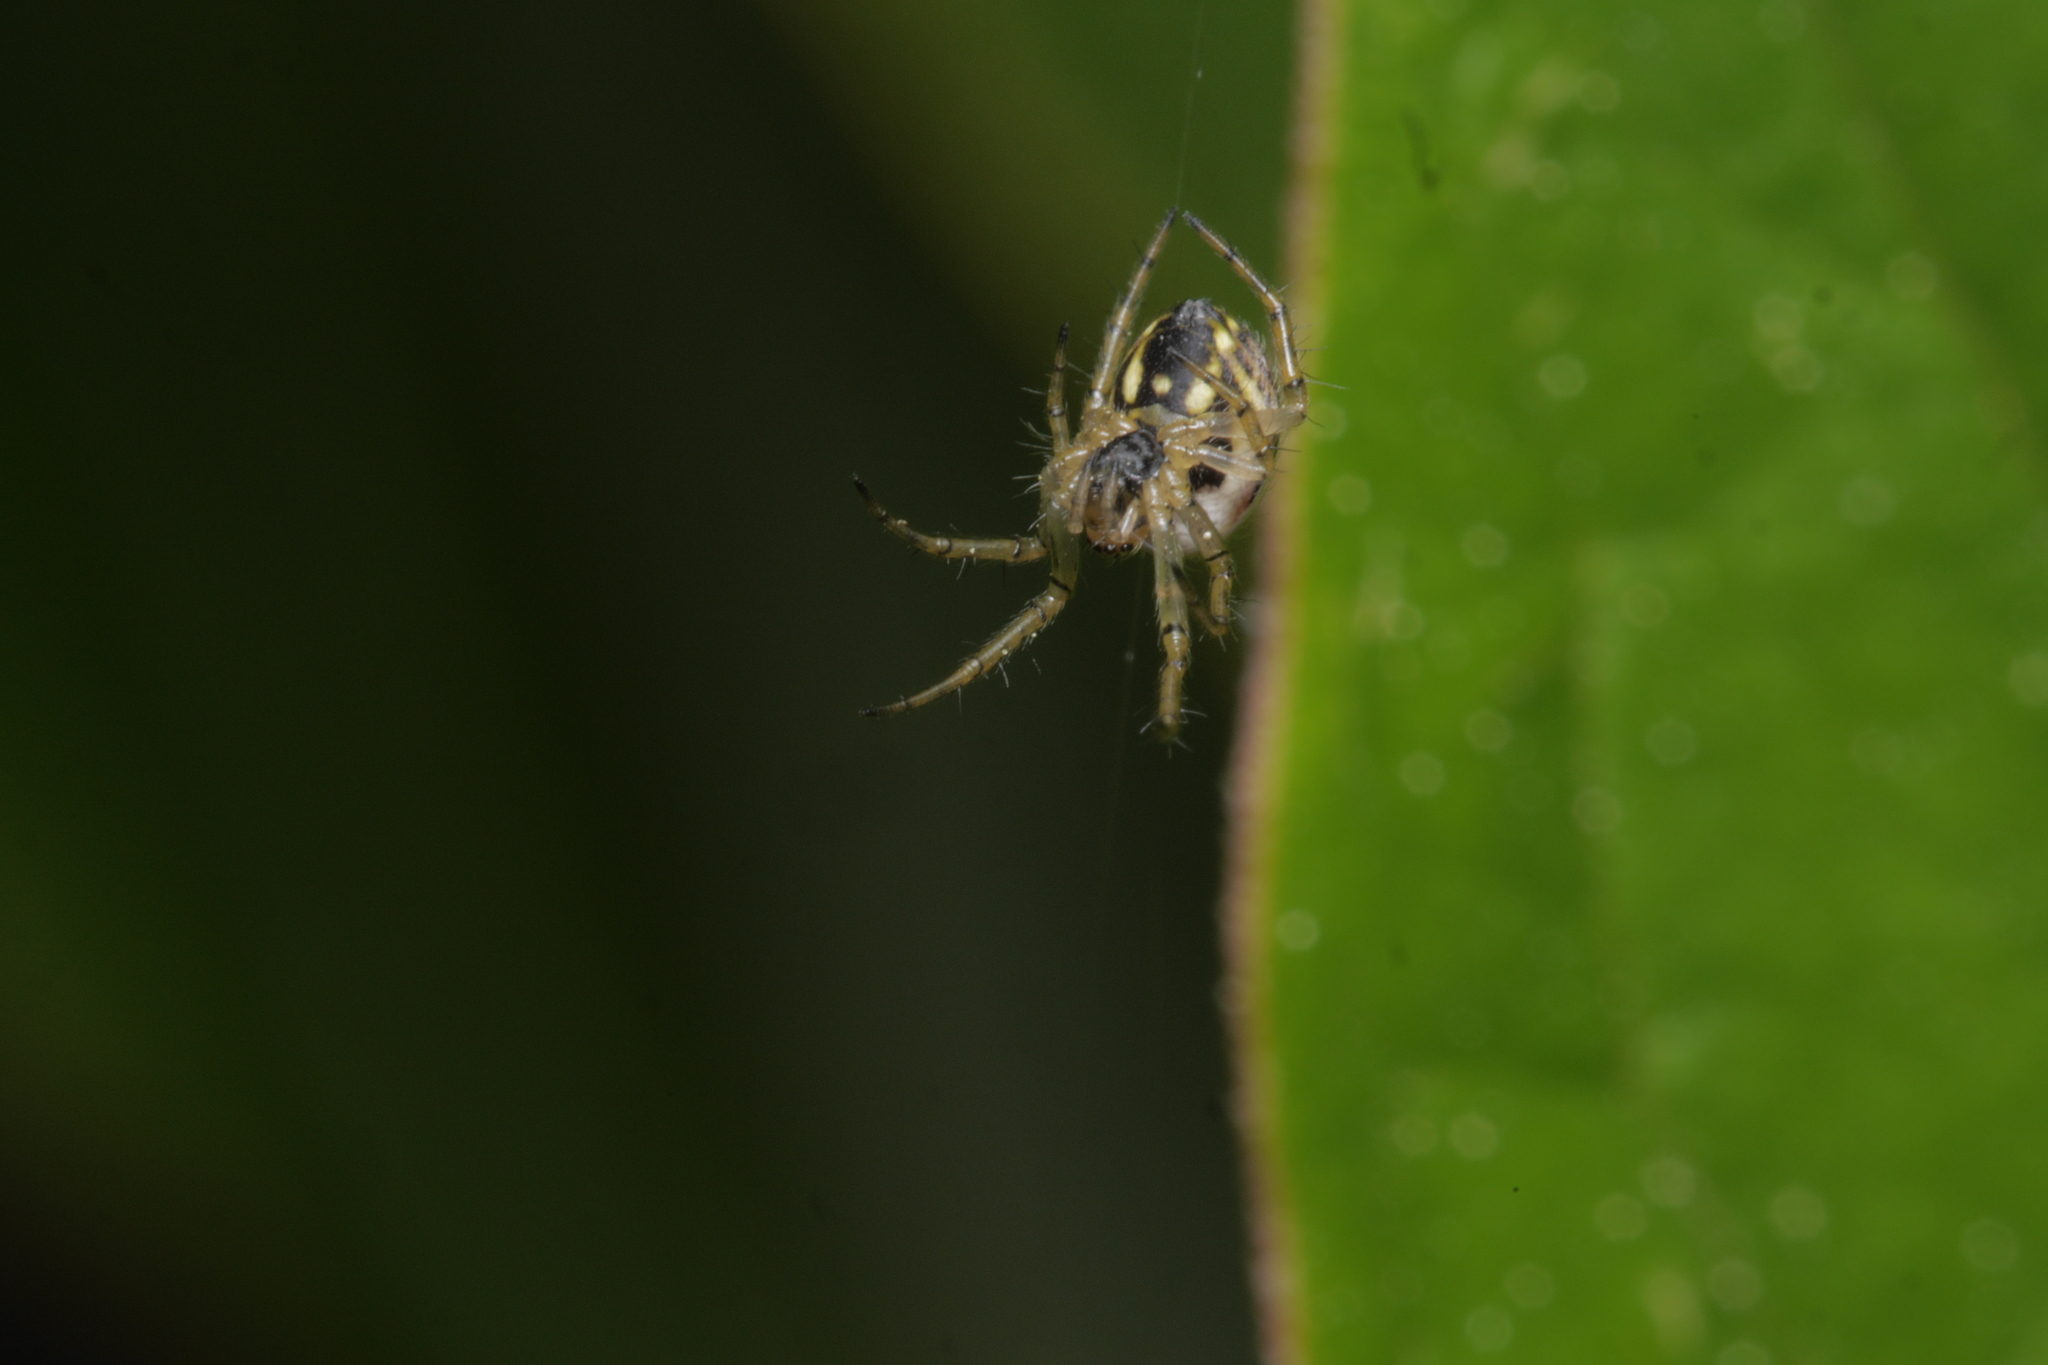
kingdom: Animalia
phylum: Arthropoda
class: Arachnida
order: Araneae
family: Araneidae
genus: Mangora
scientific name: Mangora acalypha
